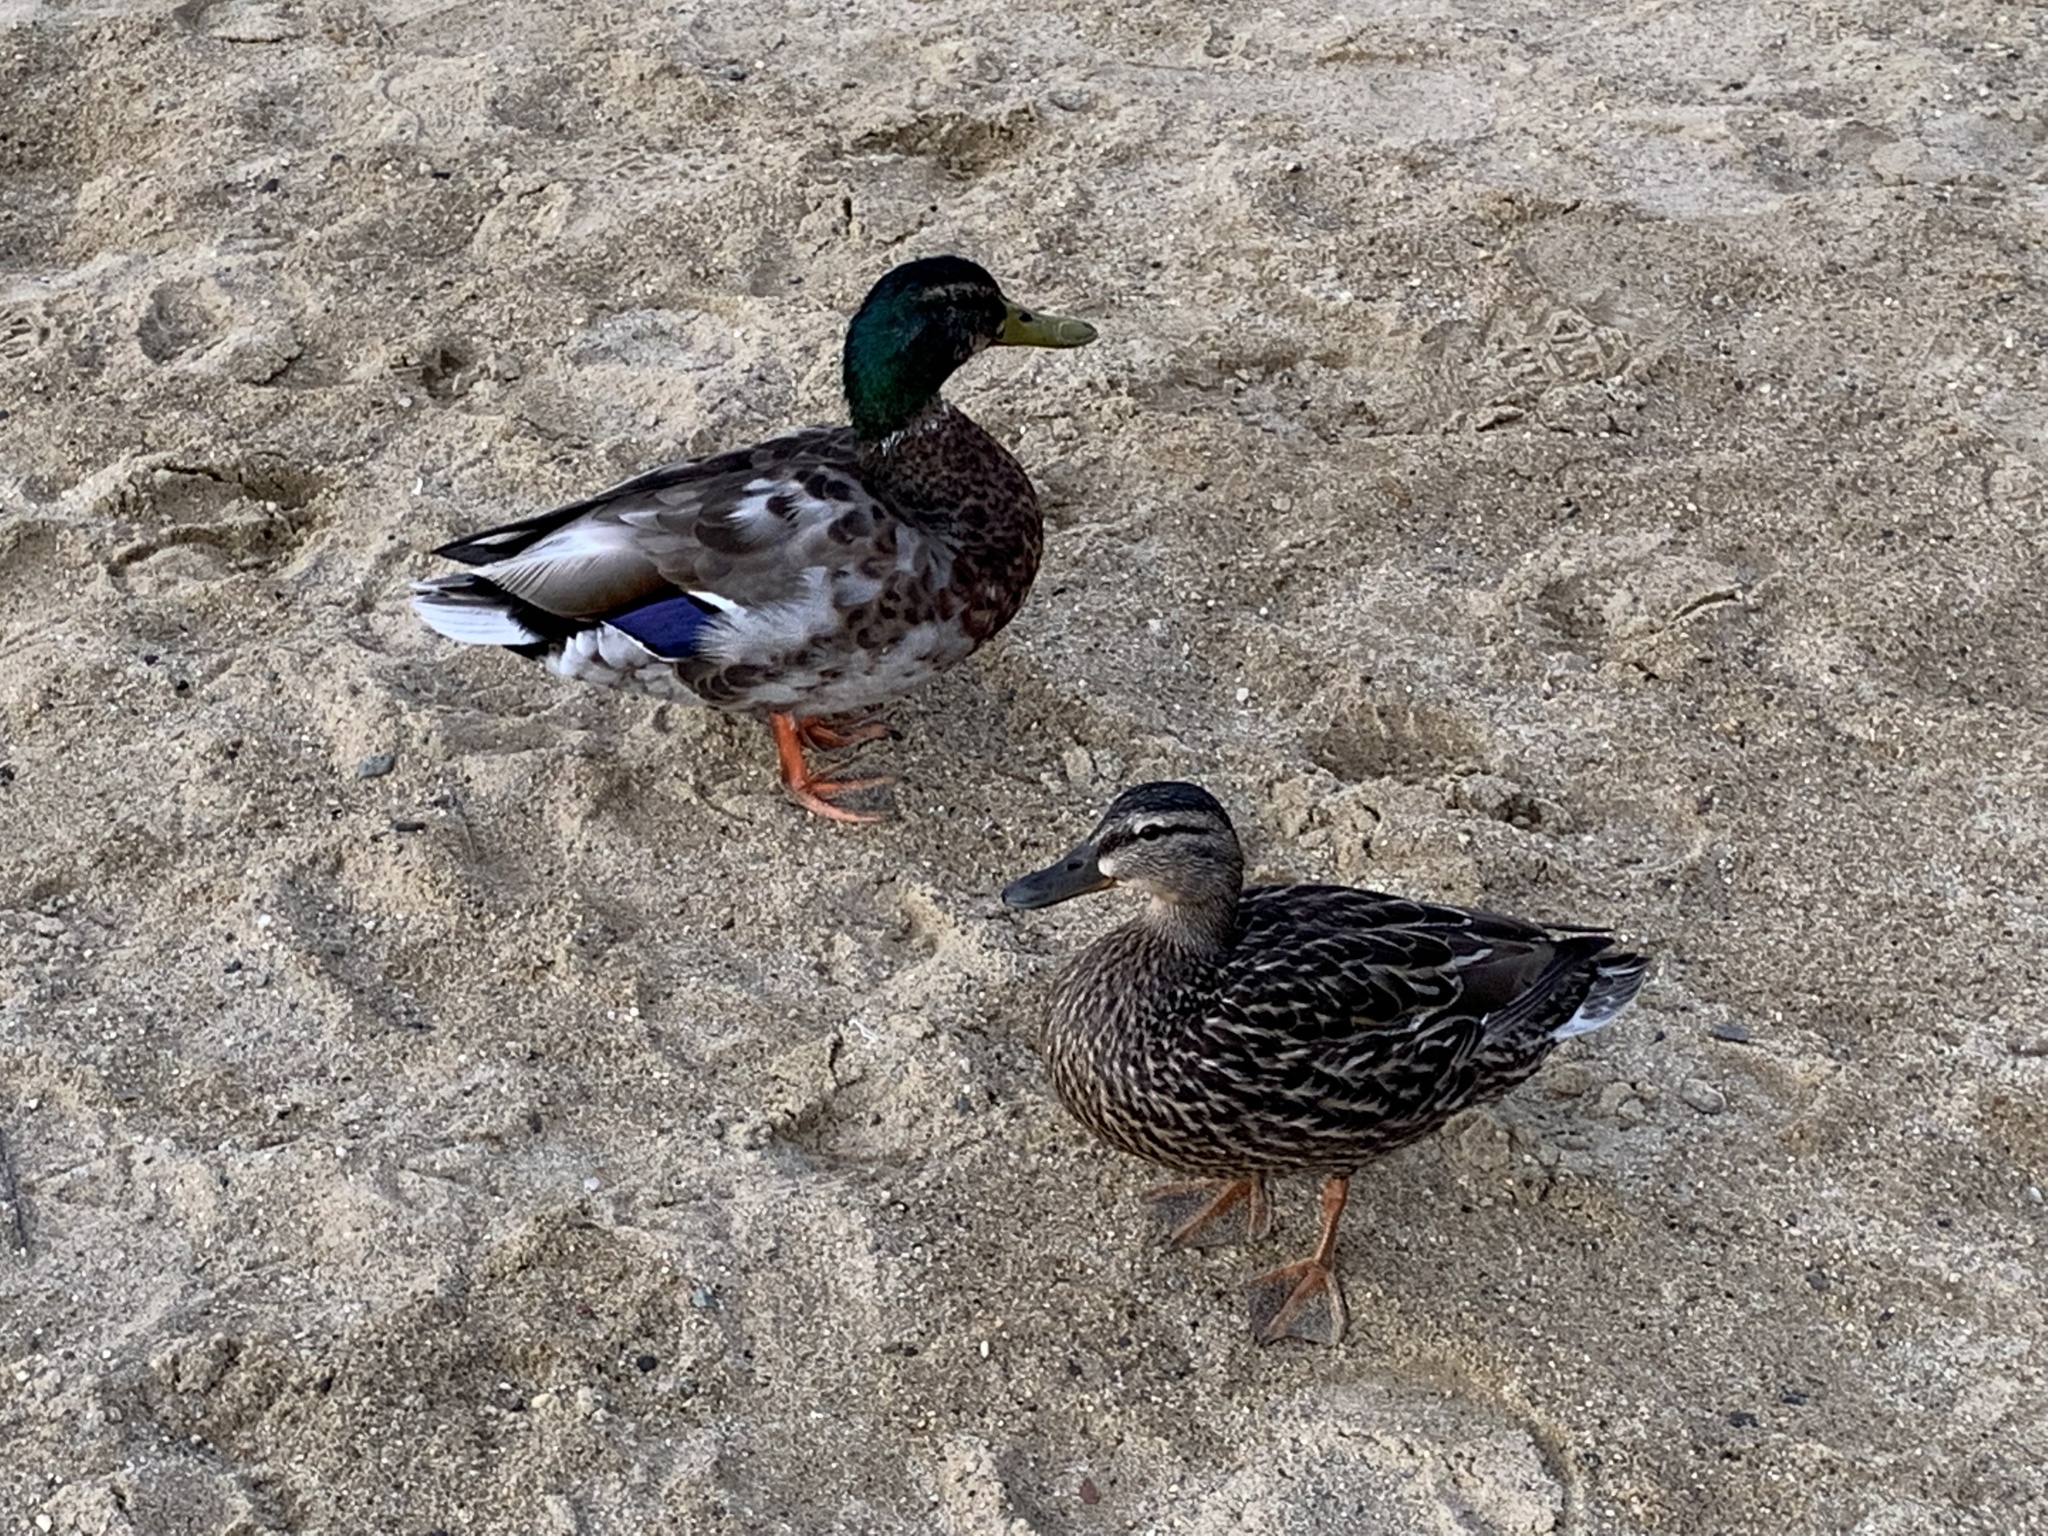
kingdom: Animalia
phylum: Chordata
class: Aves
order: Anseriformes
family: Anatidae
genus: Anas
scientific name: Anas platyrhynchos
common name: Mallard
